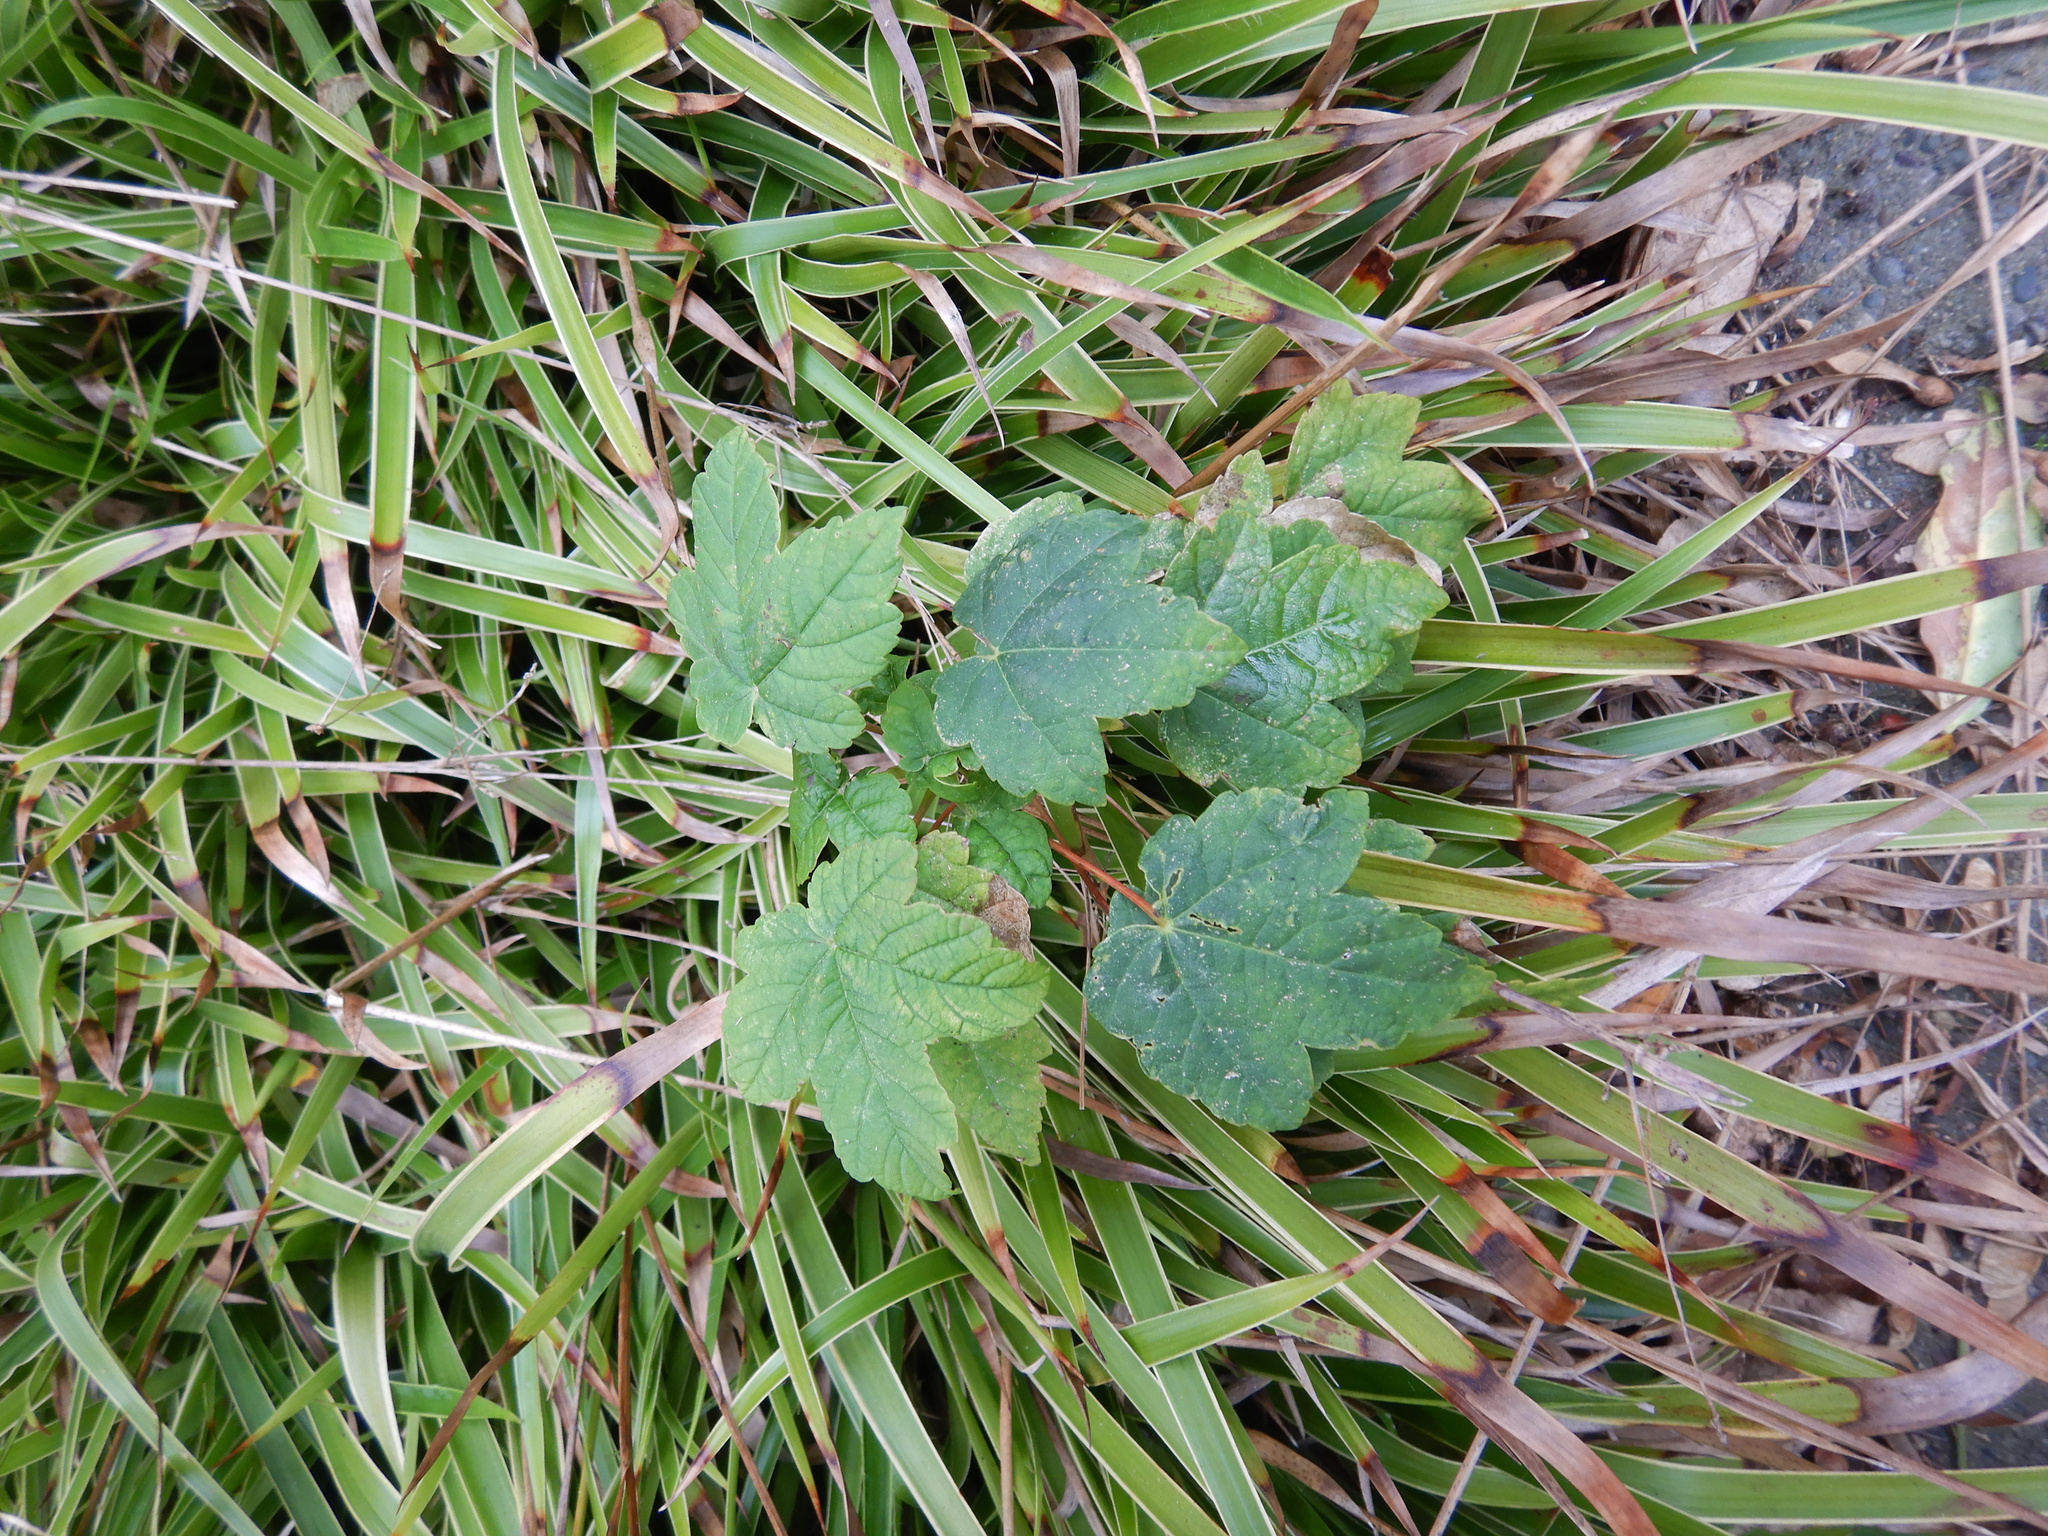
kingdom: Plantae
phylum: Tracheophyta
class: Magnoliopsida
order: Sapindales
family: Sapindaceae
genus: Acer
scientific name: Acer pseudoplatanus
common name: Sycamore
